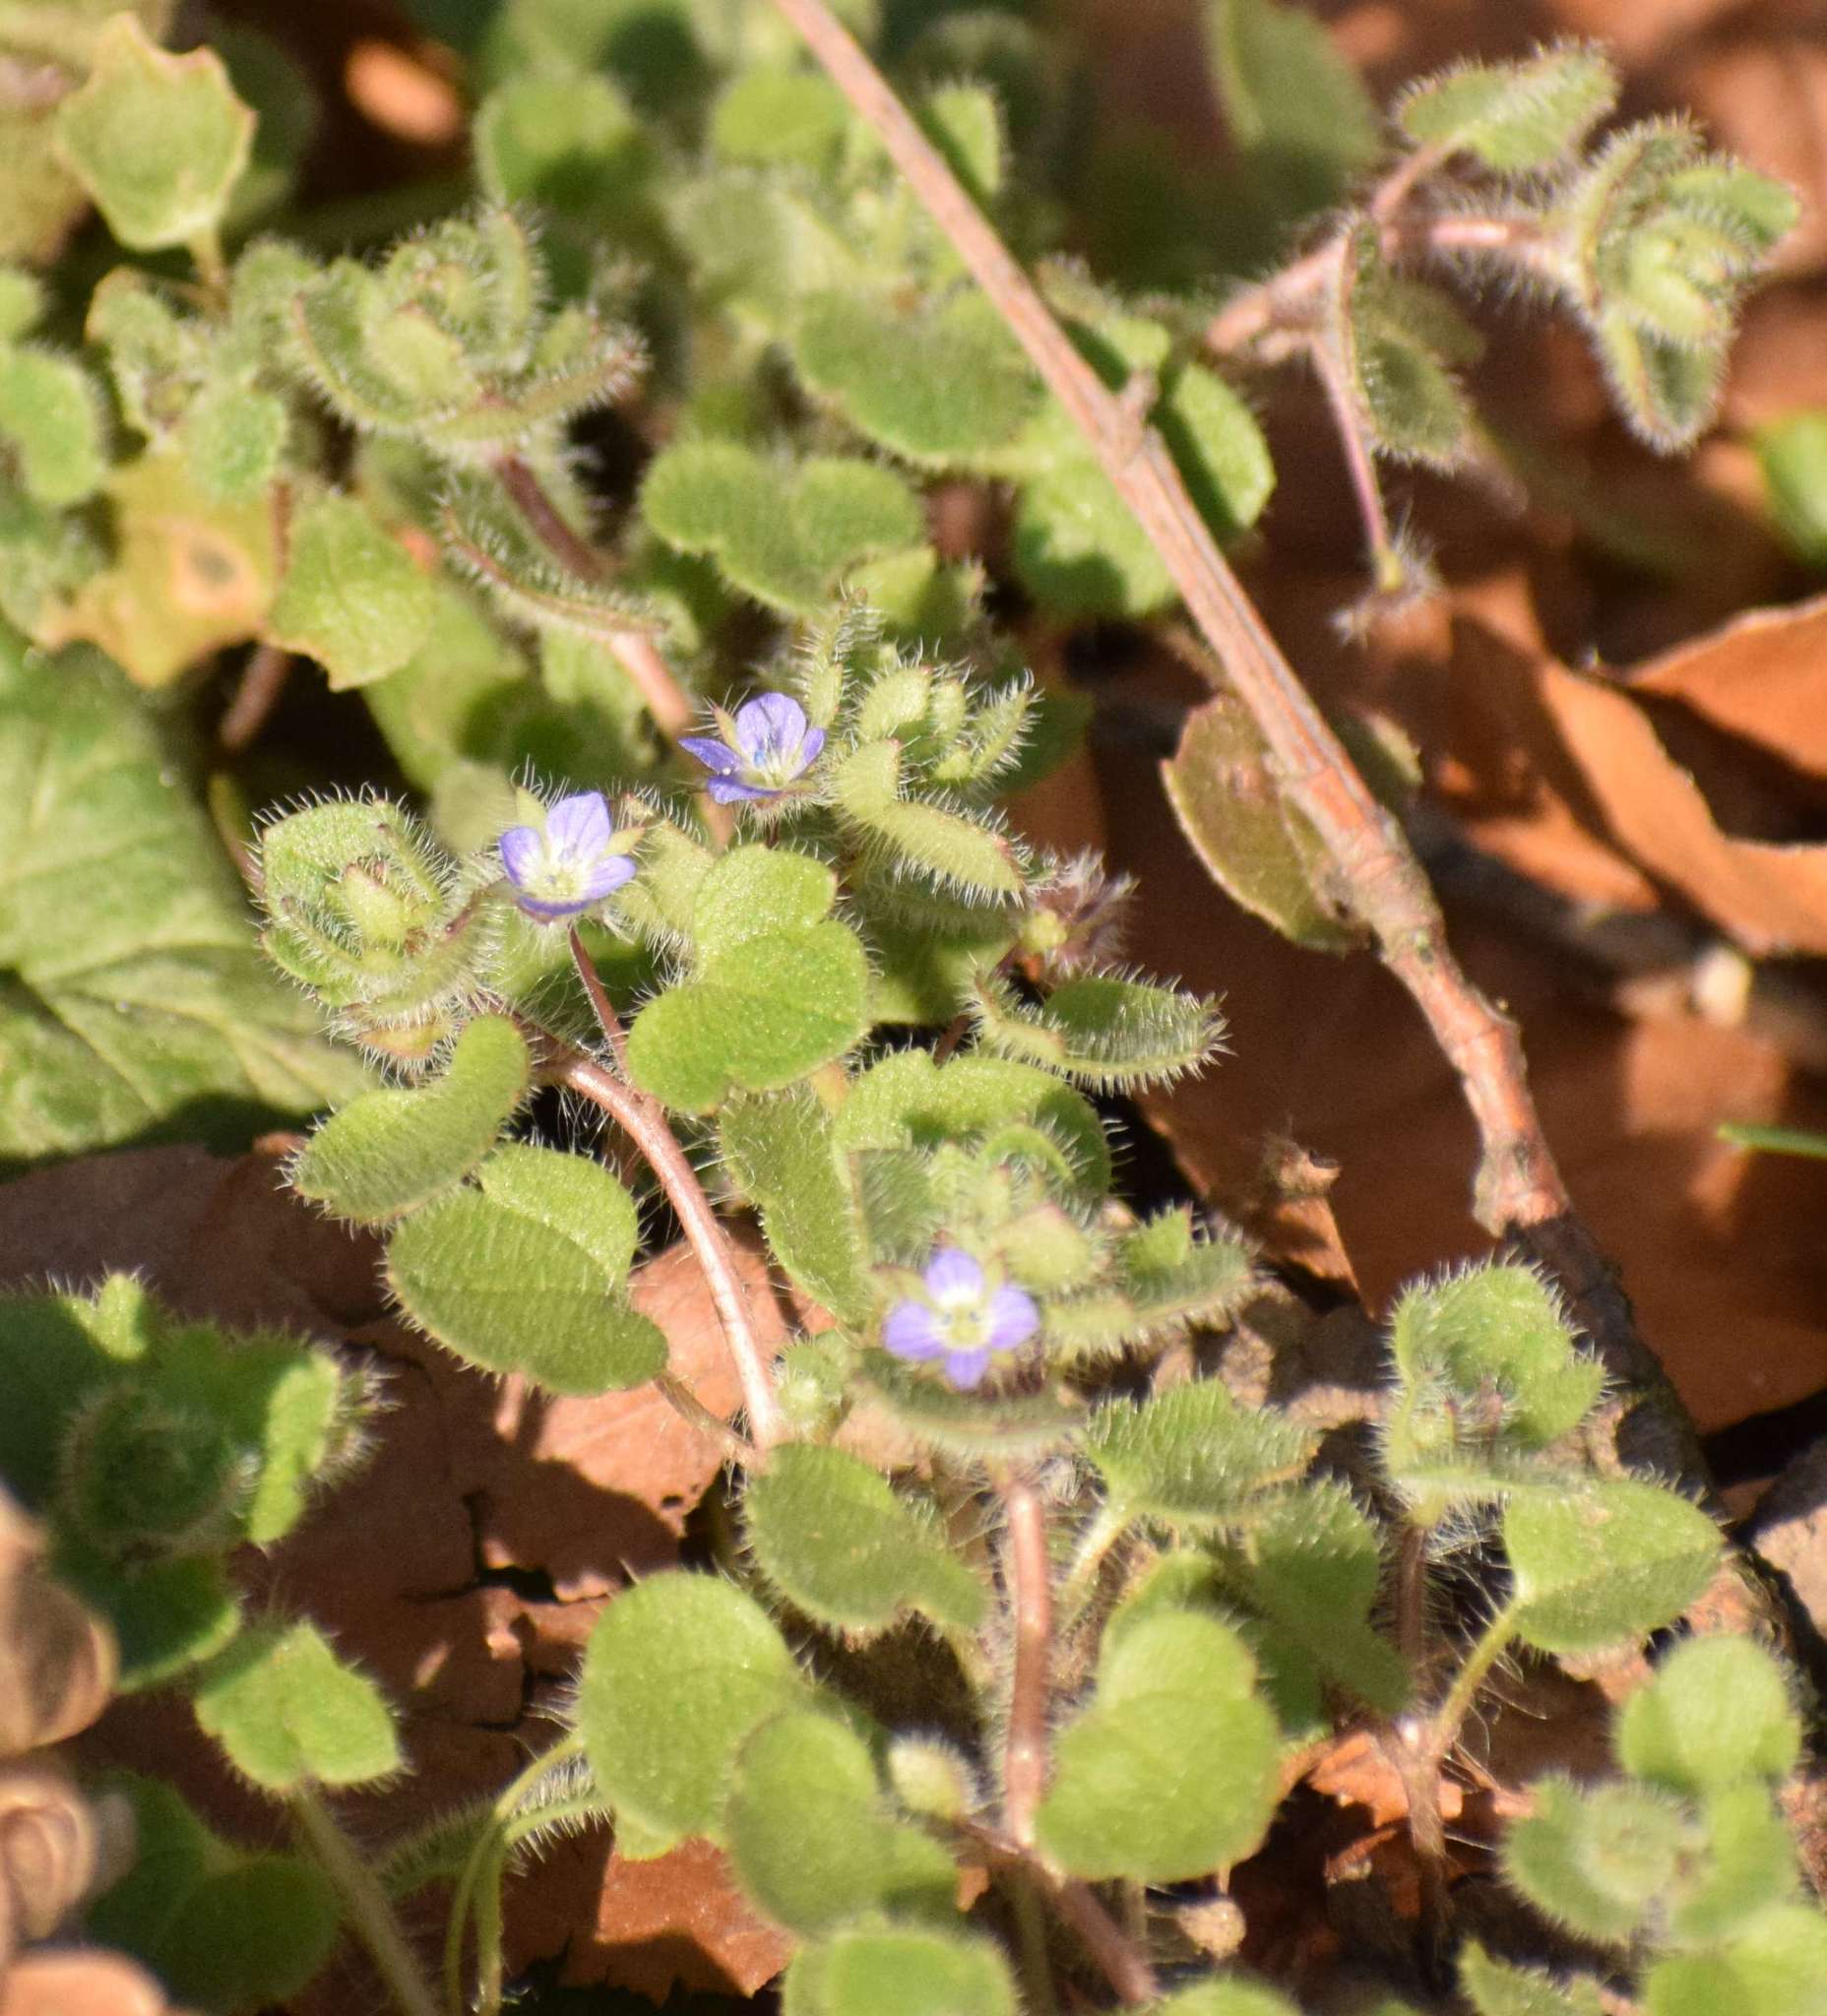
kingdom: Plantae
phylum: Tracheophyta
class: Magnoliopsida
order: Lamiales
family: Plantaginaceae
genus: Veronica
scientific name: Veronica hederifolia
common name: Ivy-leaved speedwell
